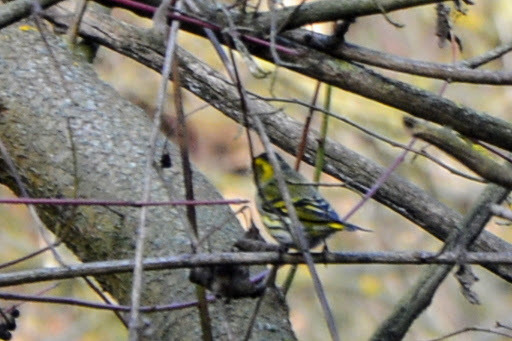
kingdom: Animalia
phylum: Chordata
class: Aves
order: Passeriformes
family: Fringillidae
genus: Spinus
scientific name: Spinus spinus
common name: Eurasian siskin
